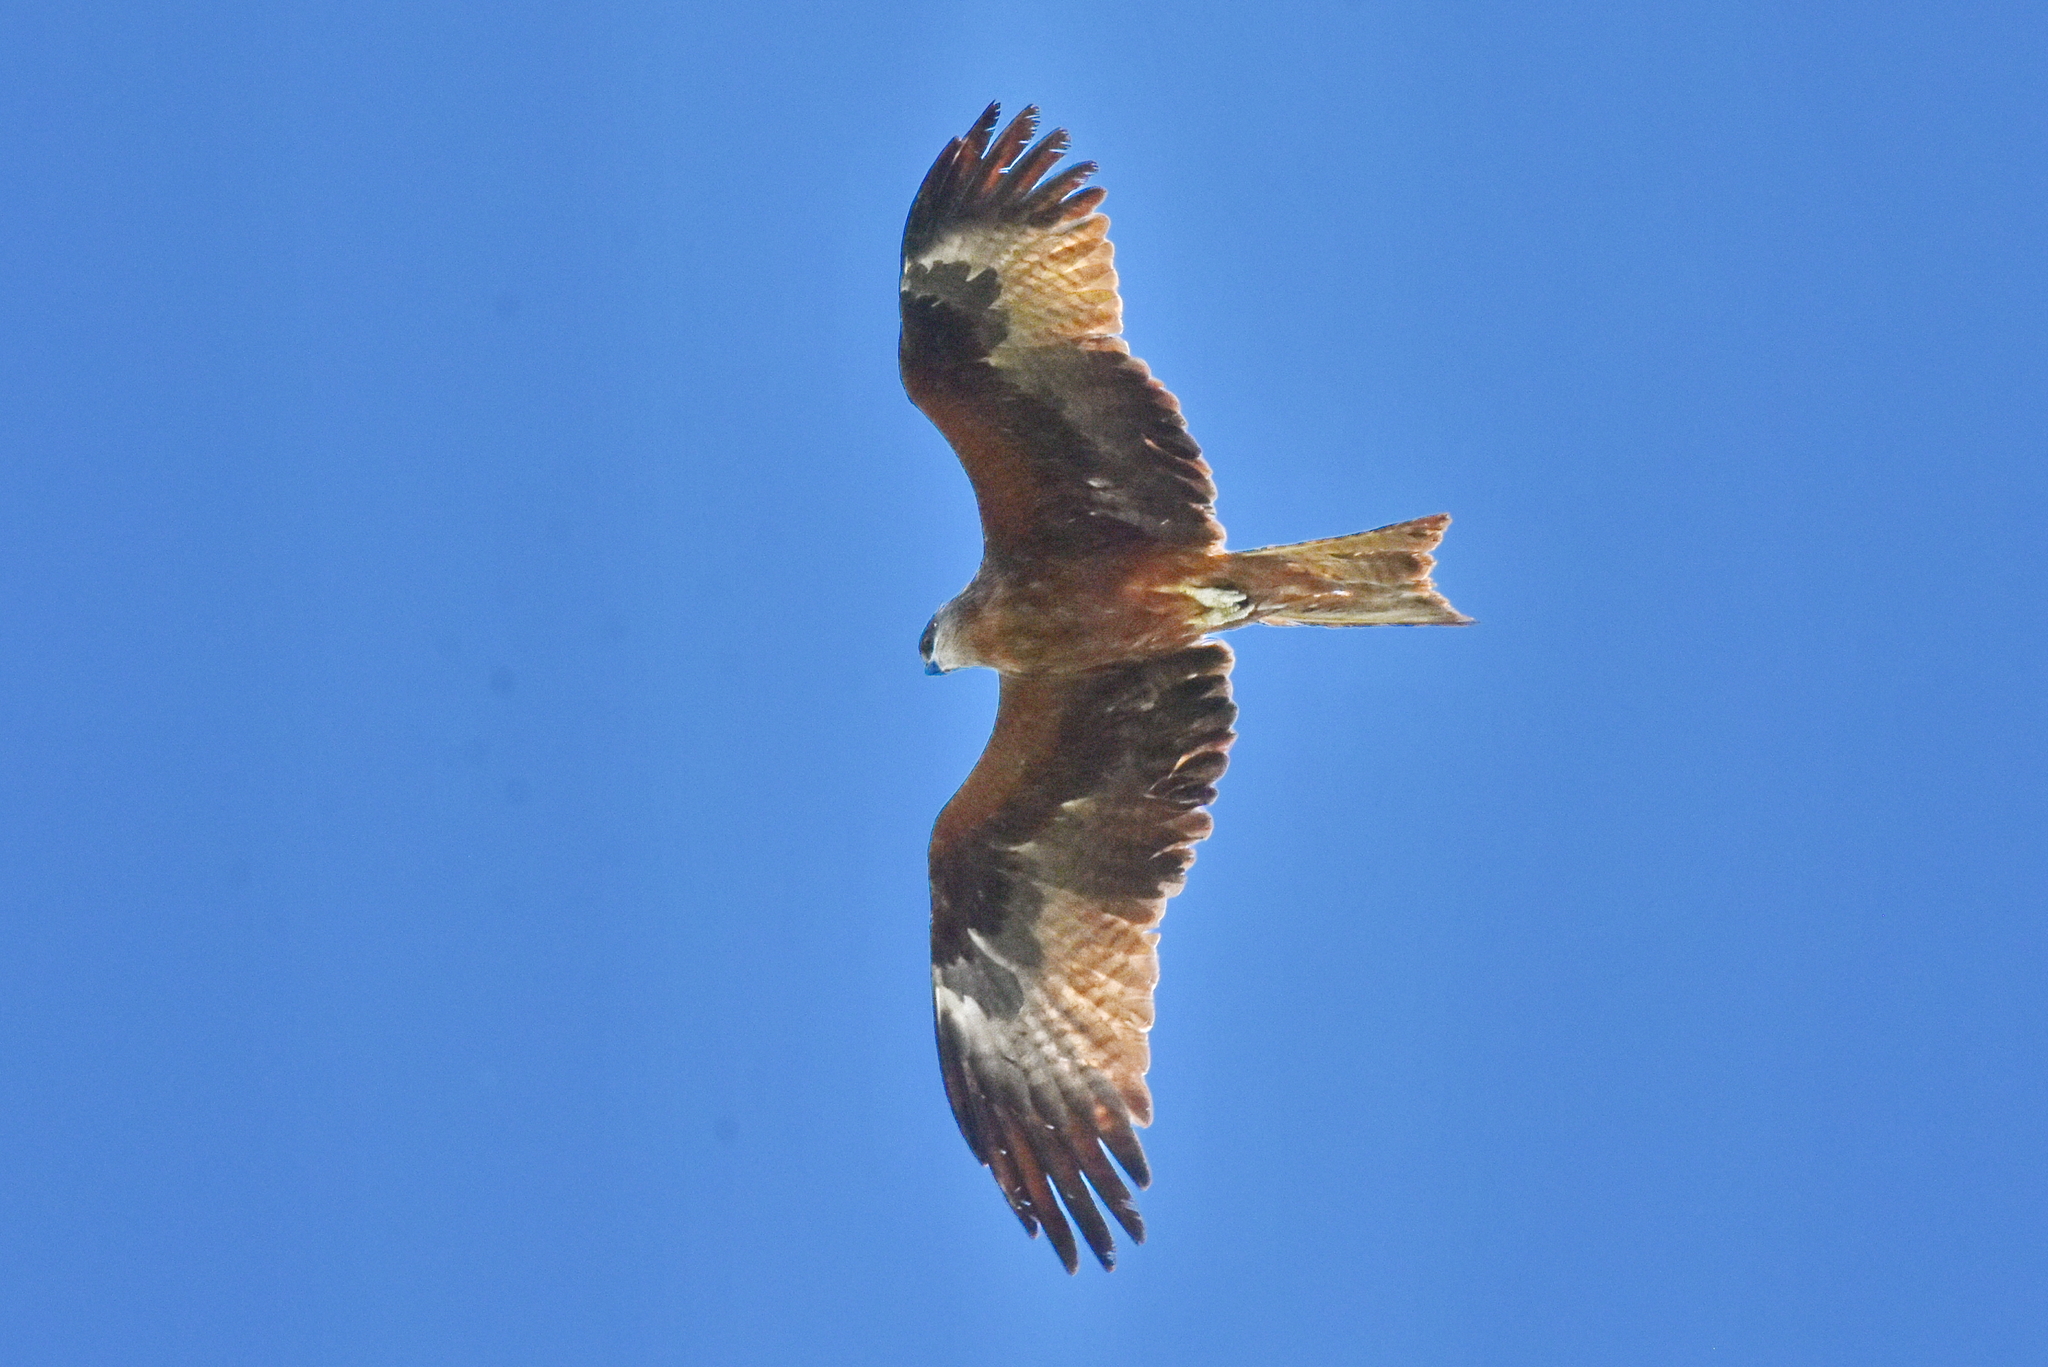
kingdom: Animalia
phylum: Chordata
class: Aves
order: Accipitriformes
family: Accipitridae
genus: Milvus
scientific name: Milvus migrans
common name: Black kite
